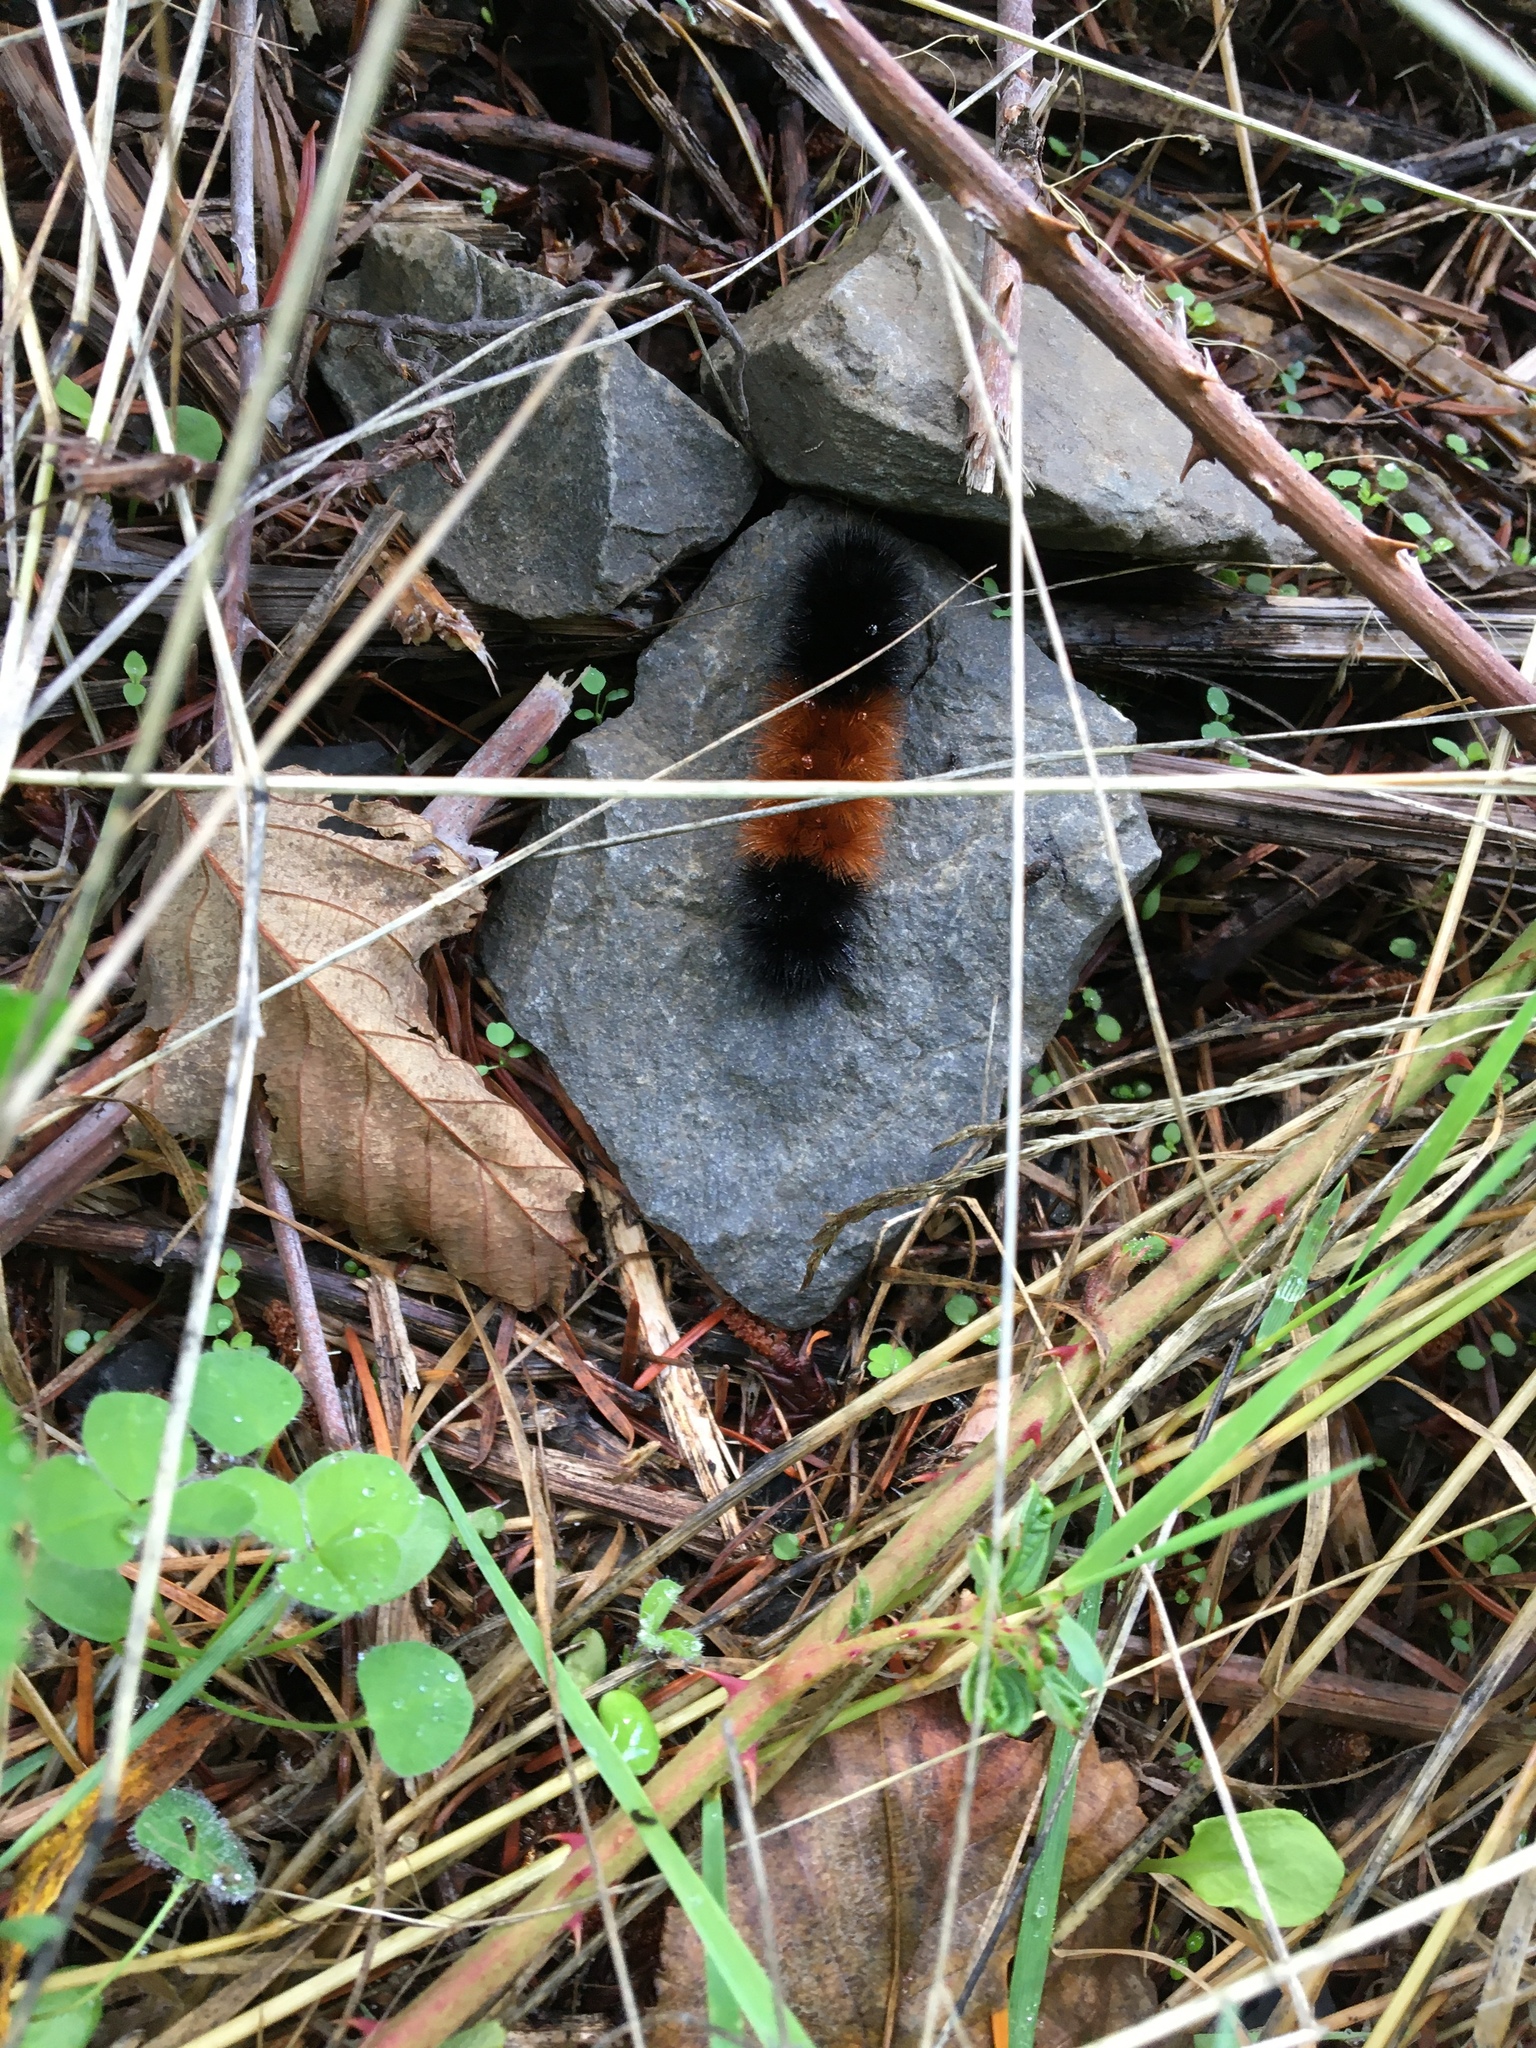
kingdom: Animalia
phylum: Arthropoda
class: Insecta
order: Lepidoptera
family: Erebidae
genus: Pyrrharctia
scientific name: Pyrrharctia isabella
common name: Isabella tiger moth
